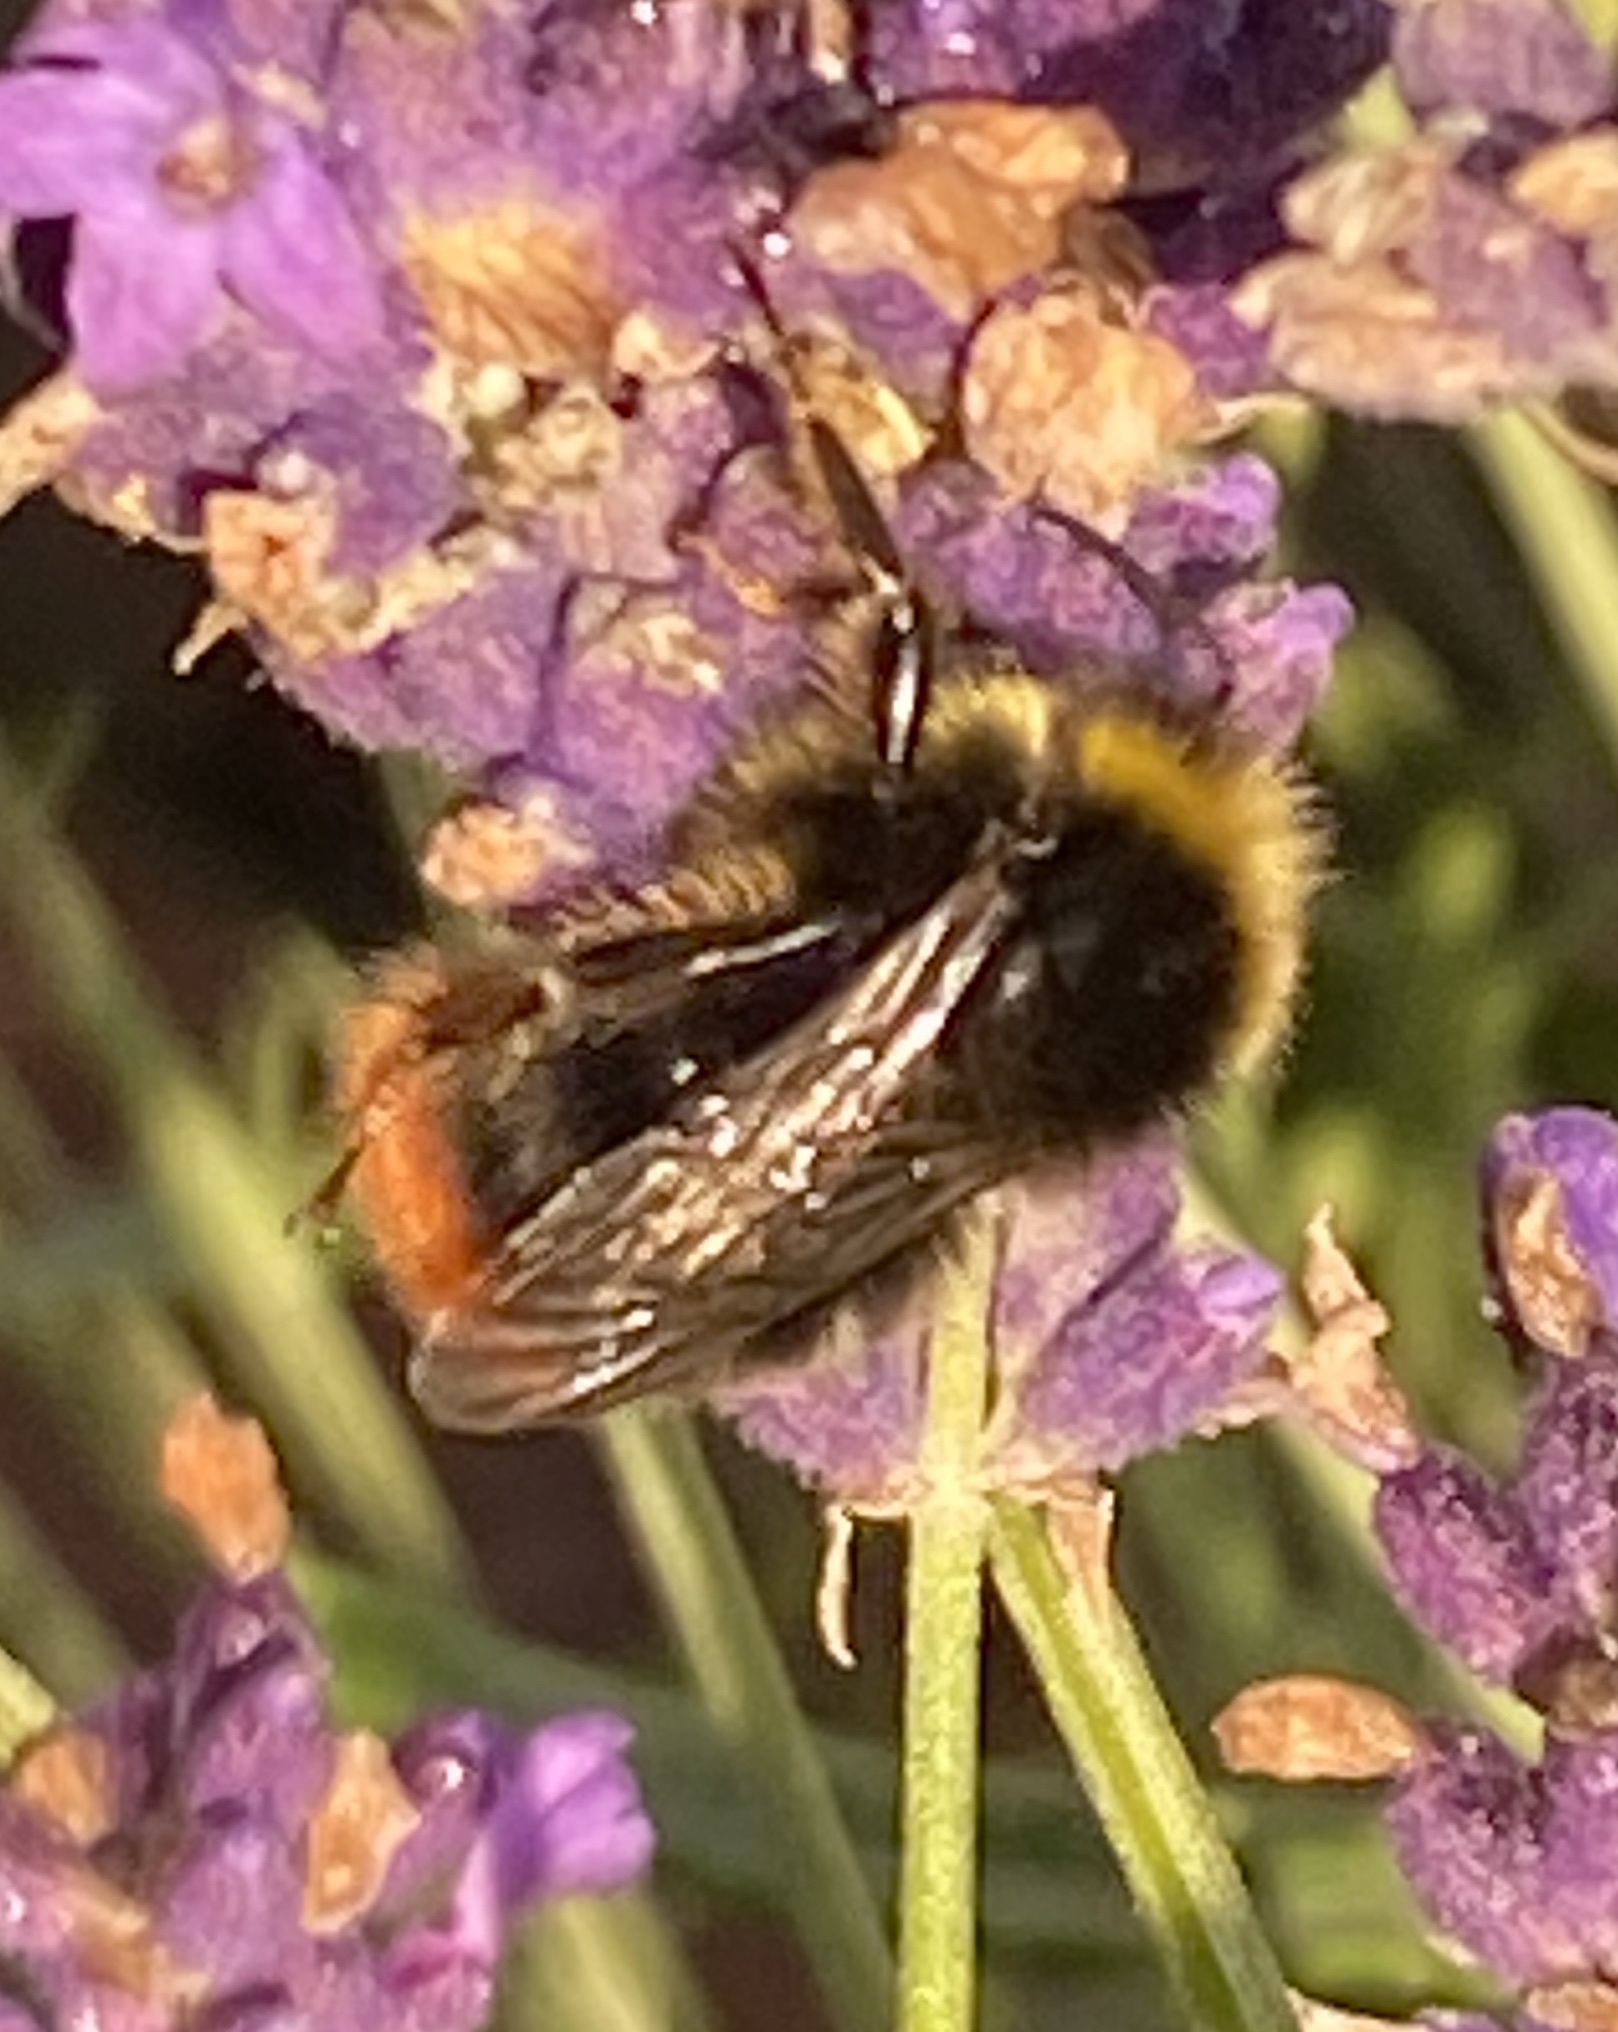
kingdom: Animalia
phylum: Arthropoda
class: Insecta
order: Hymenoptera
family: Apidae
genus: Bombus
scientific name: Bombus lapidarius
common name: Large red-tailed humble-bee
